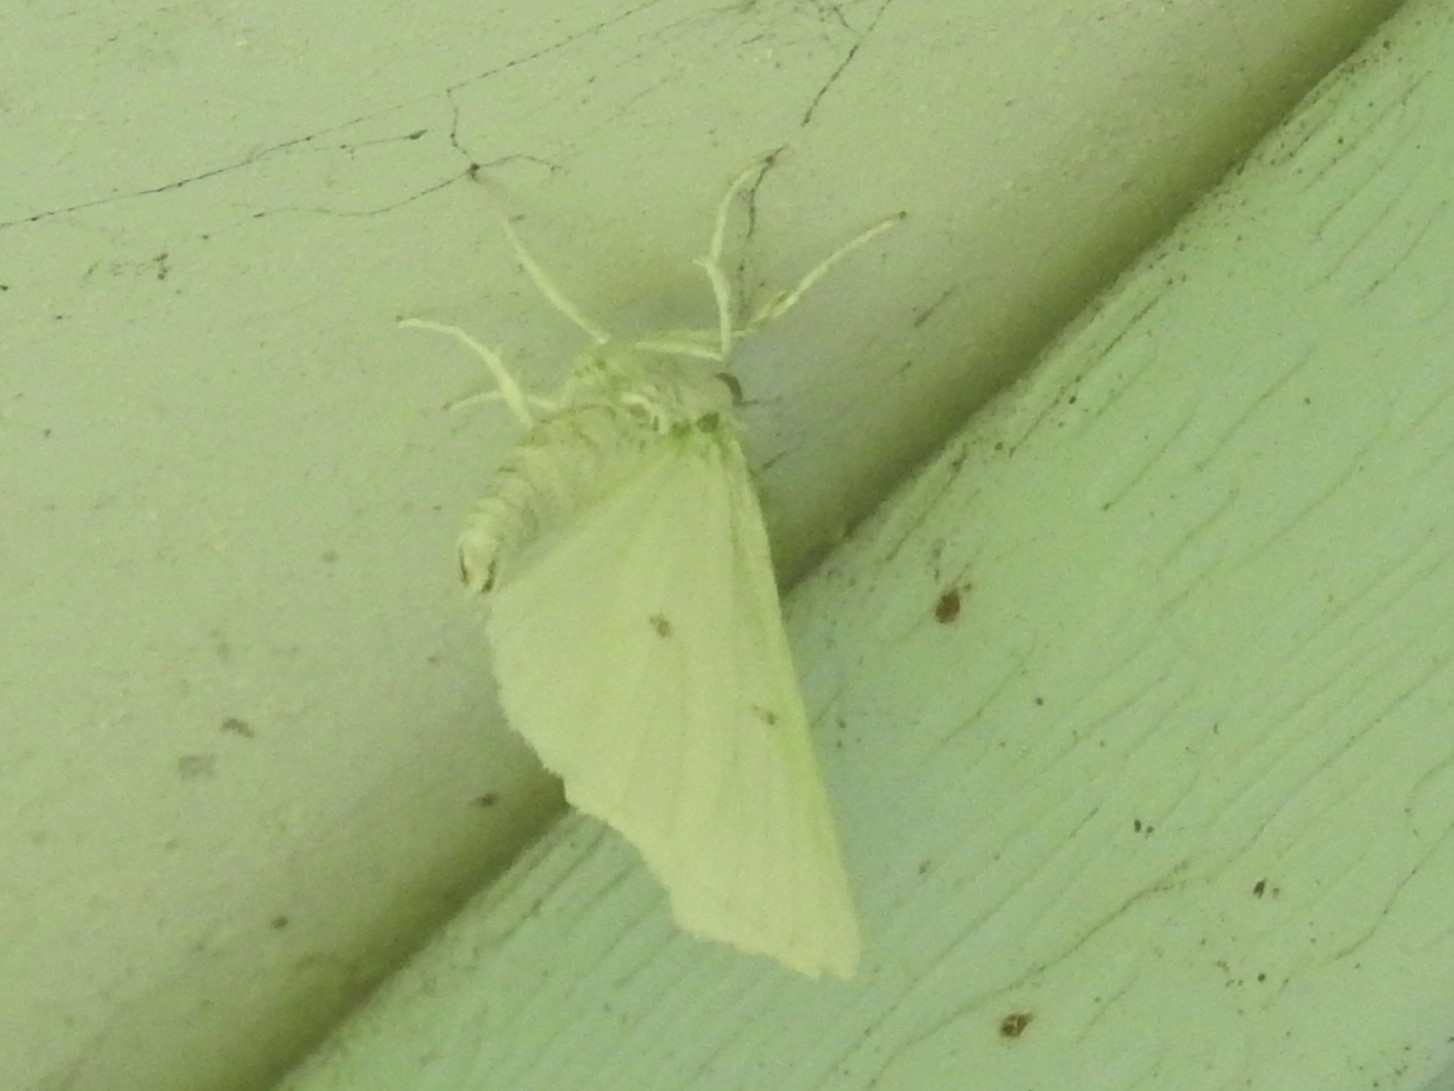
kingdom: Animalia
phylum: Arthropoda
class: Insecta
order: Lepidoptera
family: Geometridae
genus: Ennomos
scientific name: Ennomos subsignaria
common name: Elm spanworm
